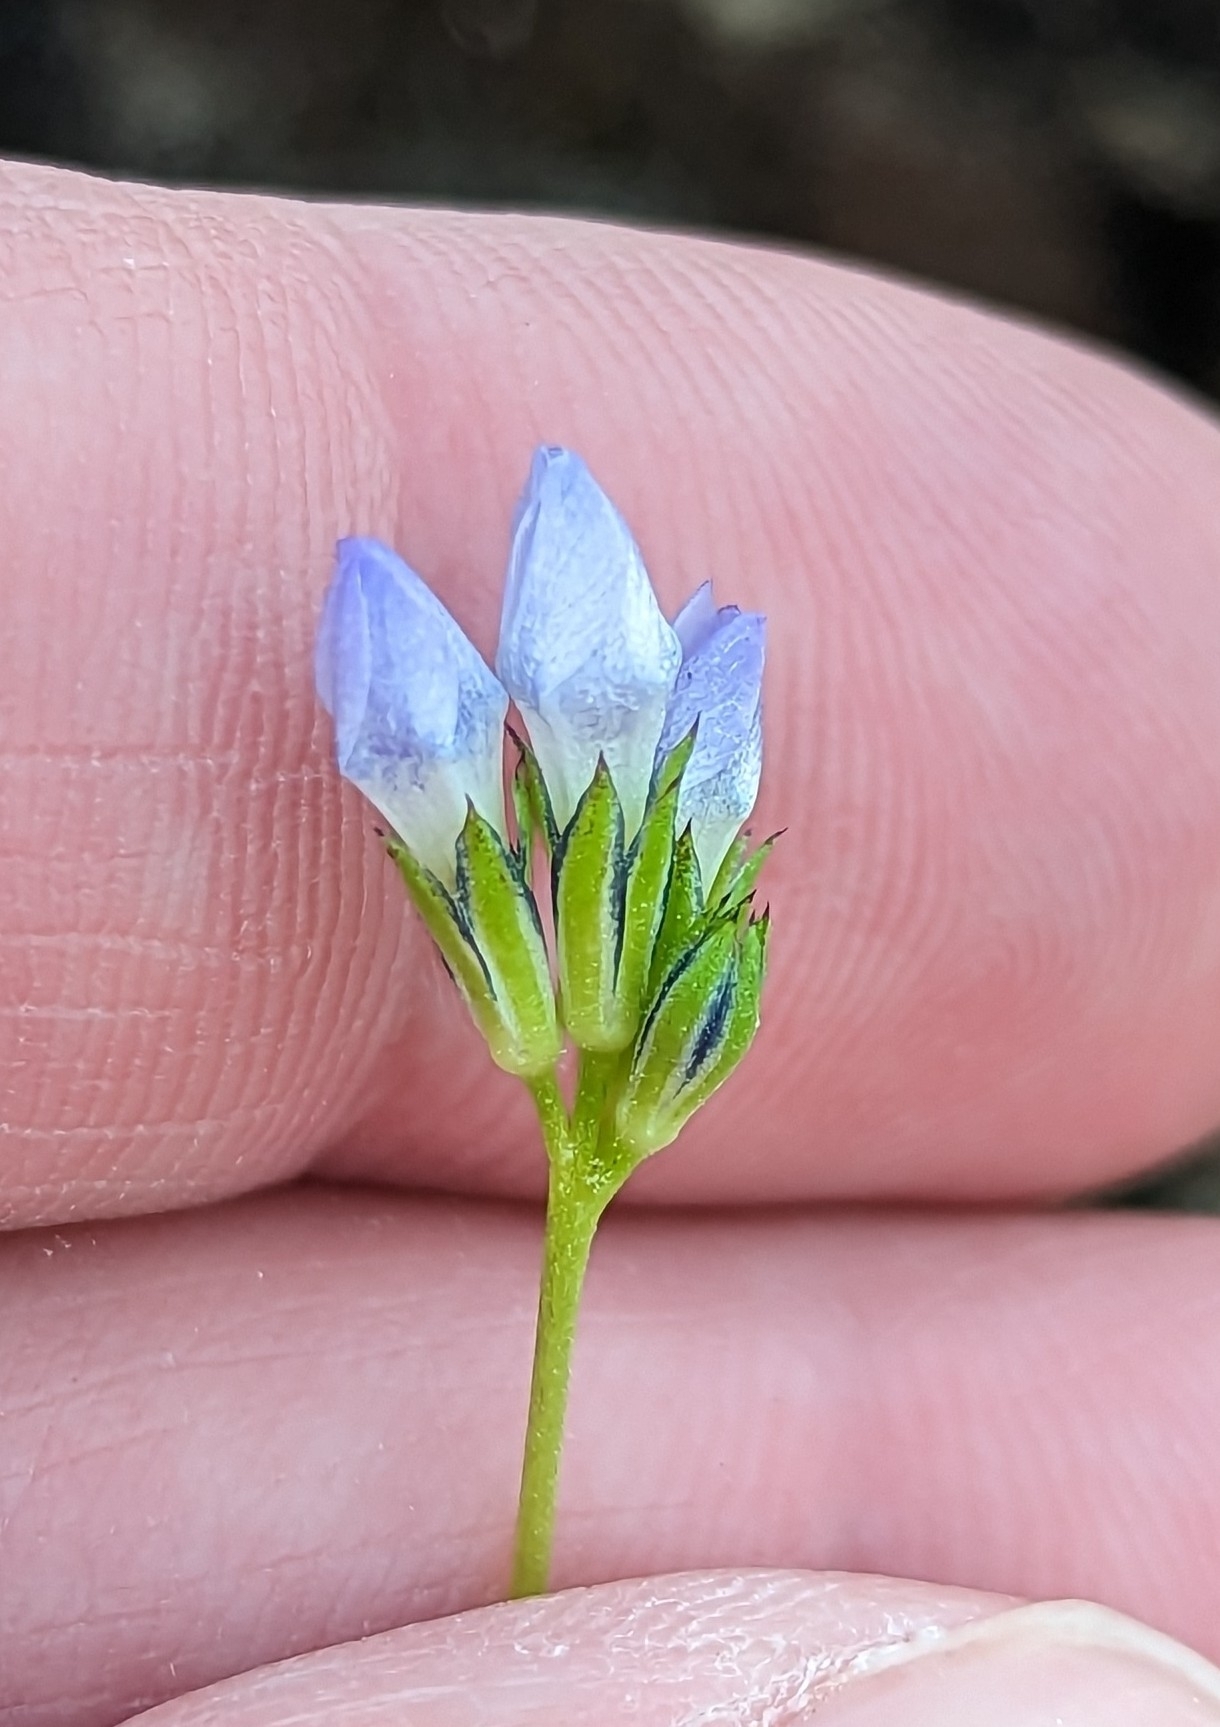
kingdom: Plantae
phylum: Tracheophyta
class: Magnoliopsida
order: Ericales
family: Polemoniaceae
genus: Gilia
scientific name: Gilia angelensis
